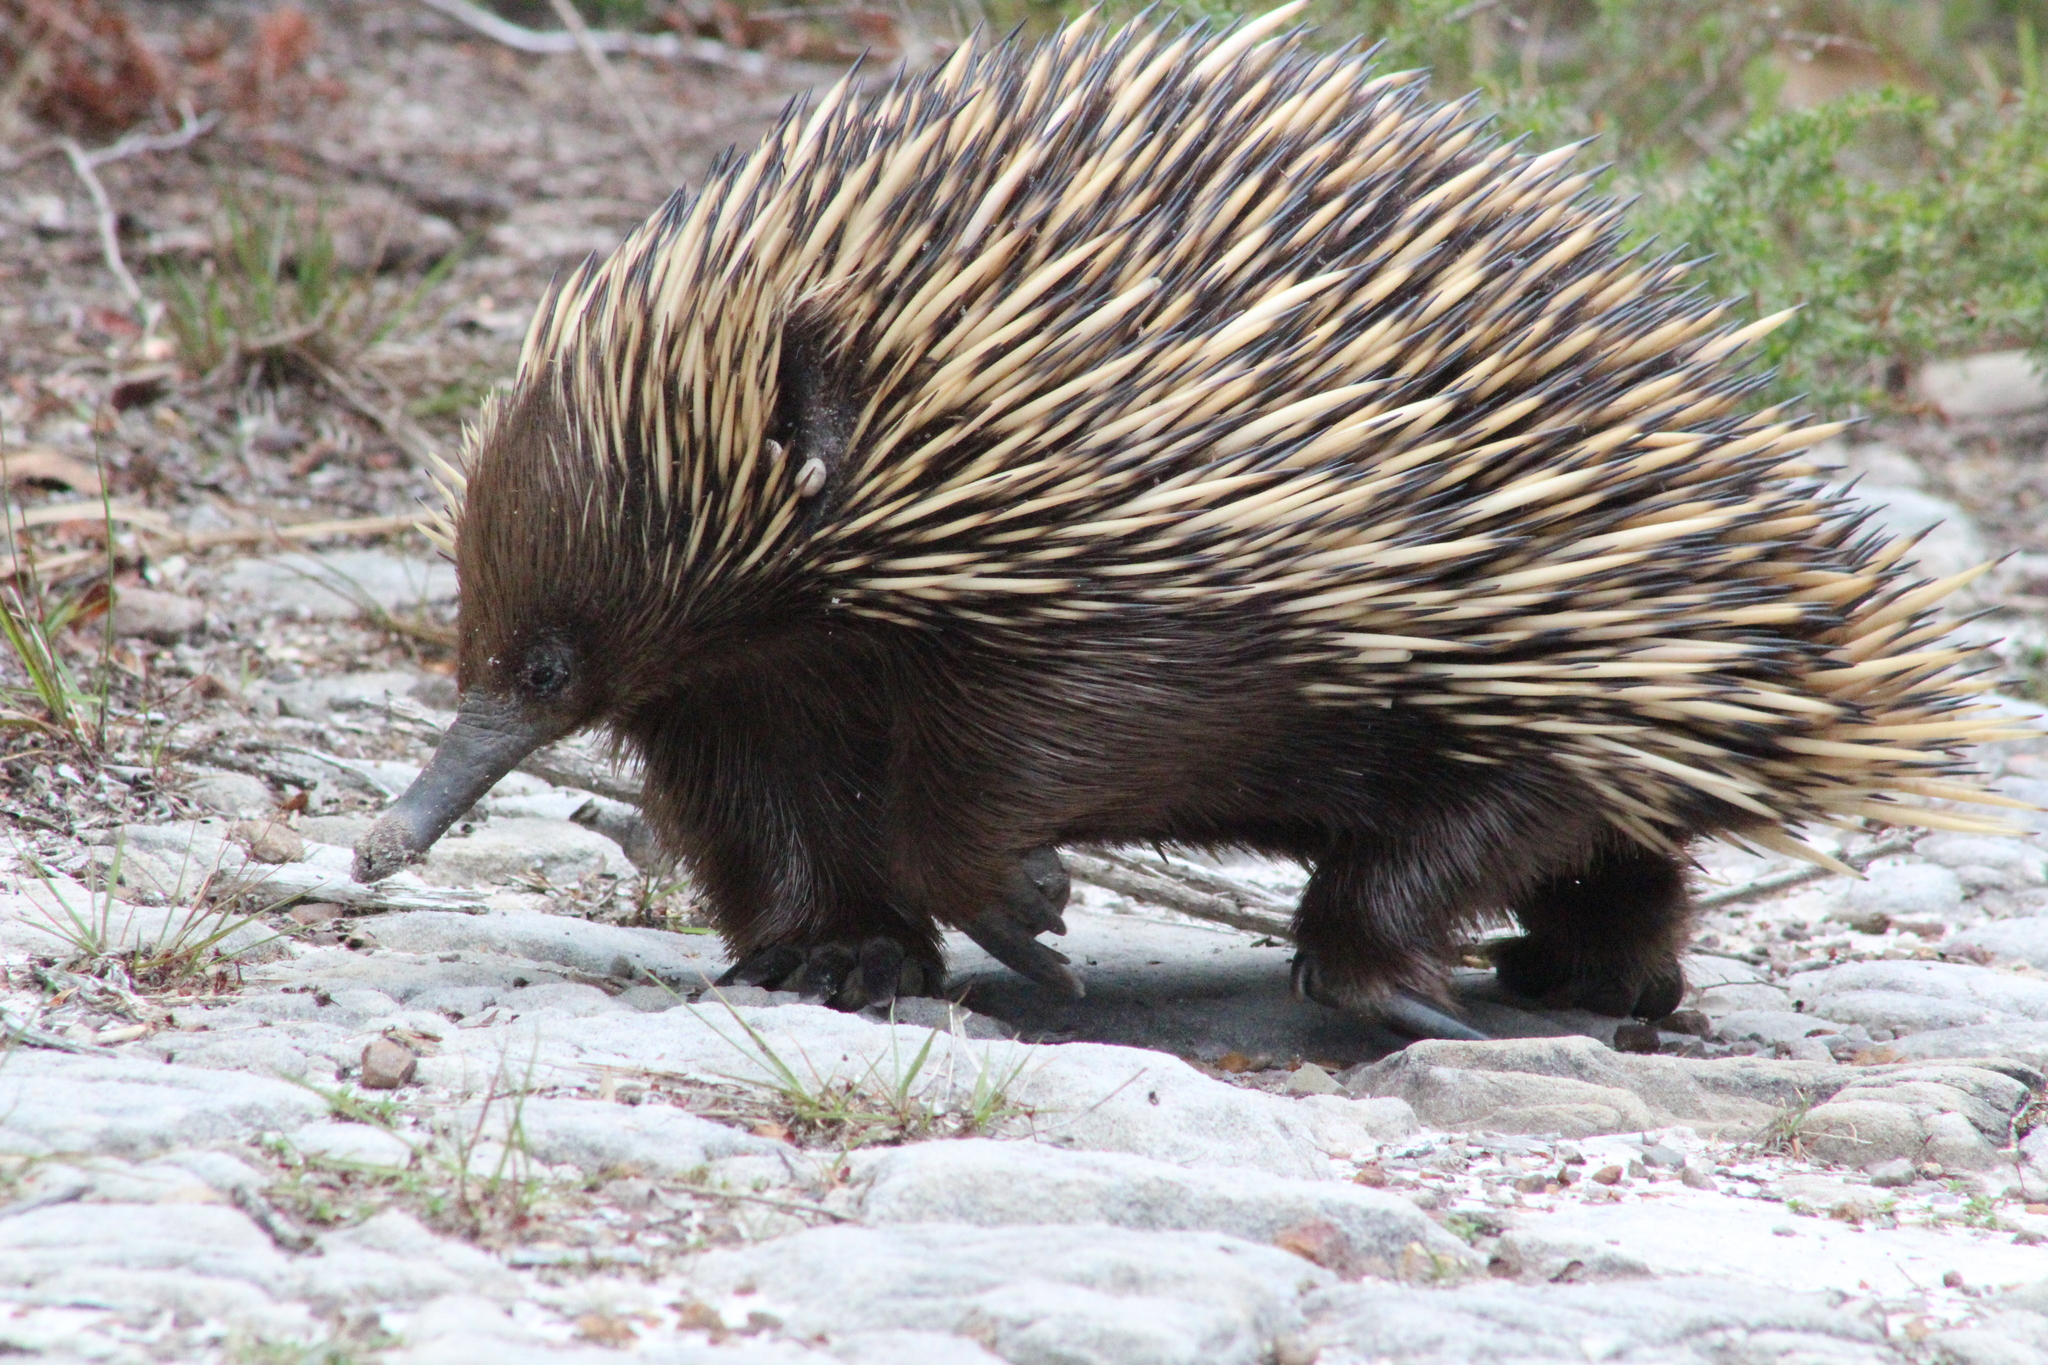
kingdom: Animalia
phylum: Chordata
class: Mammalia
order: Monotremata
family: Tachyglossidae
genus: Tachyglossus
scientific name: Tachyglossus aculeatus
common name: Short-beaked echidna
